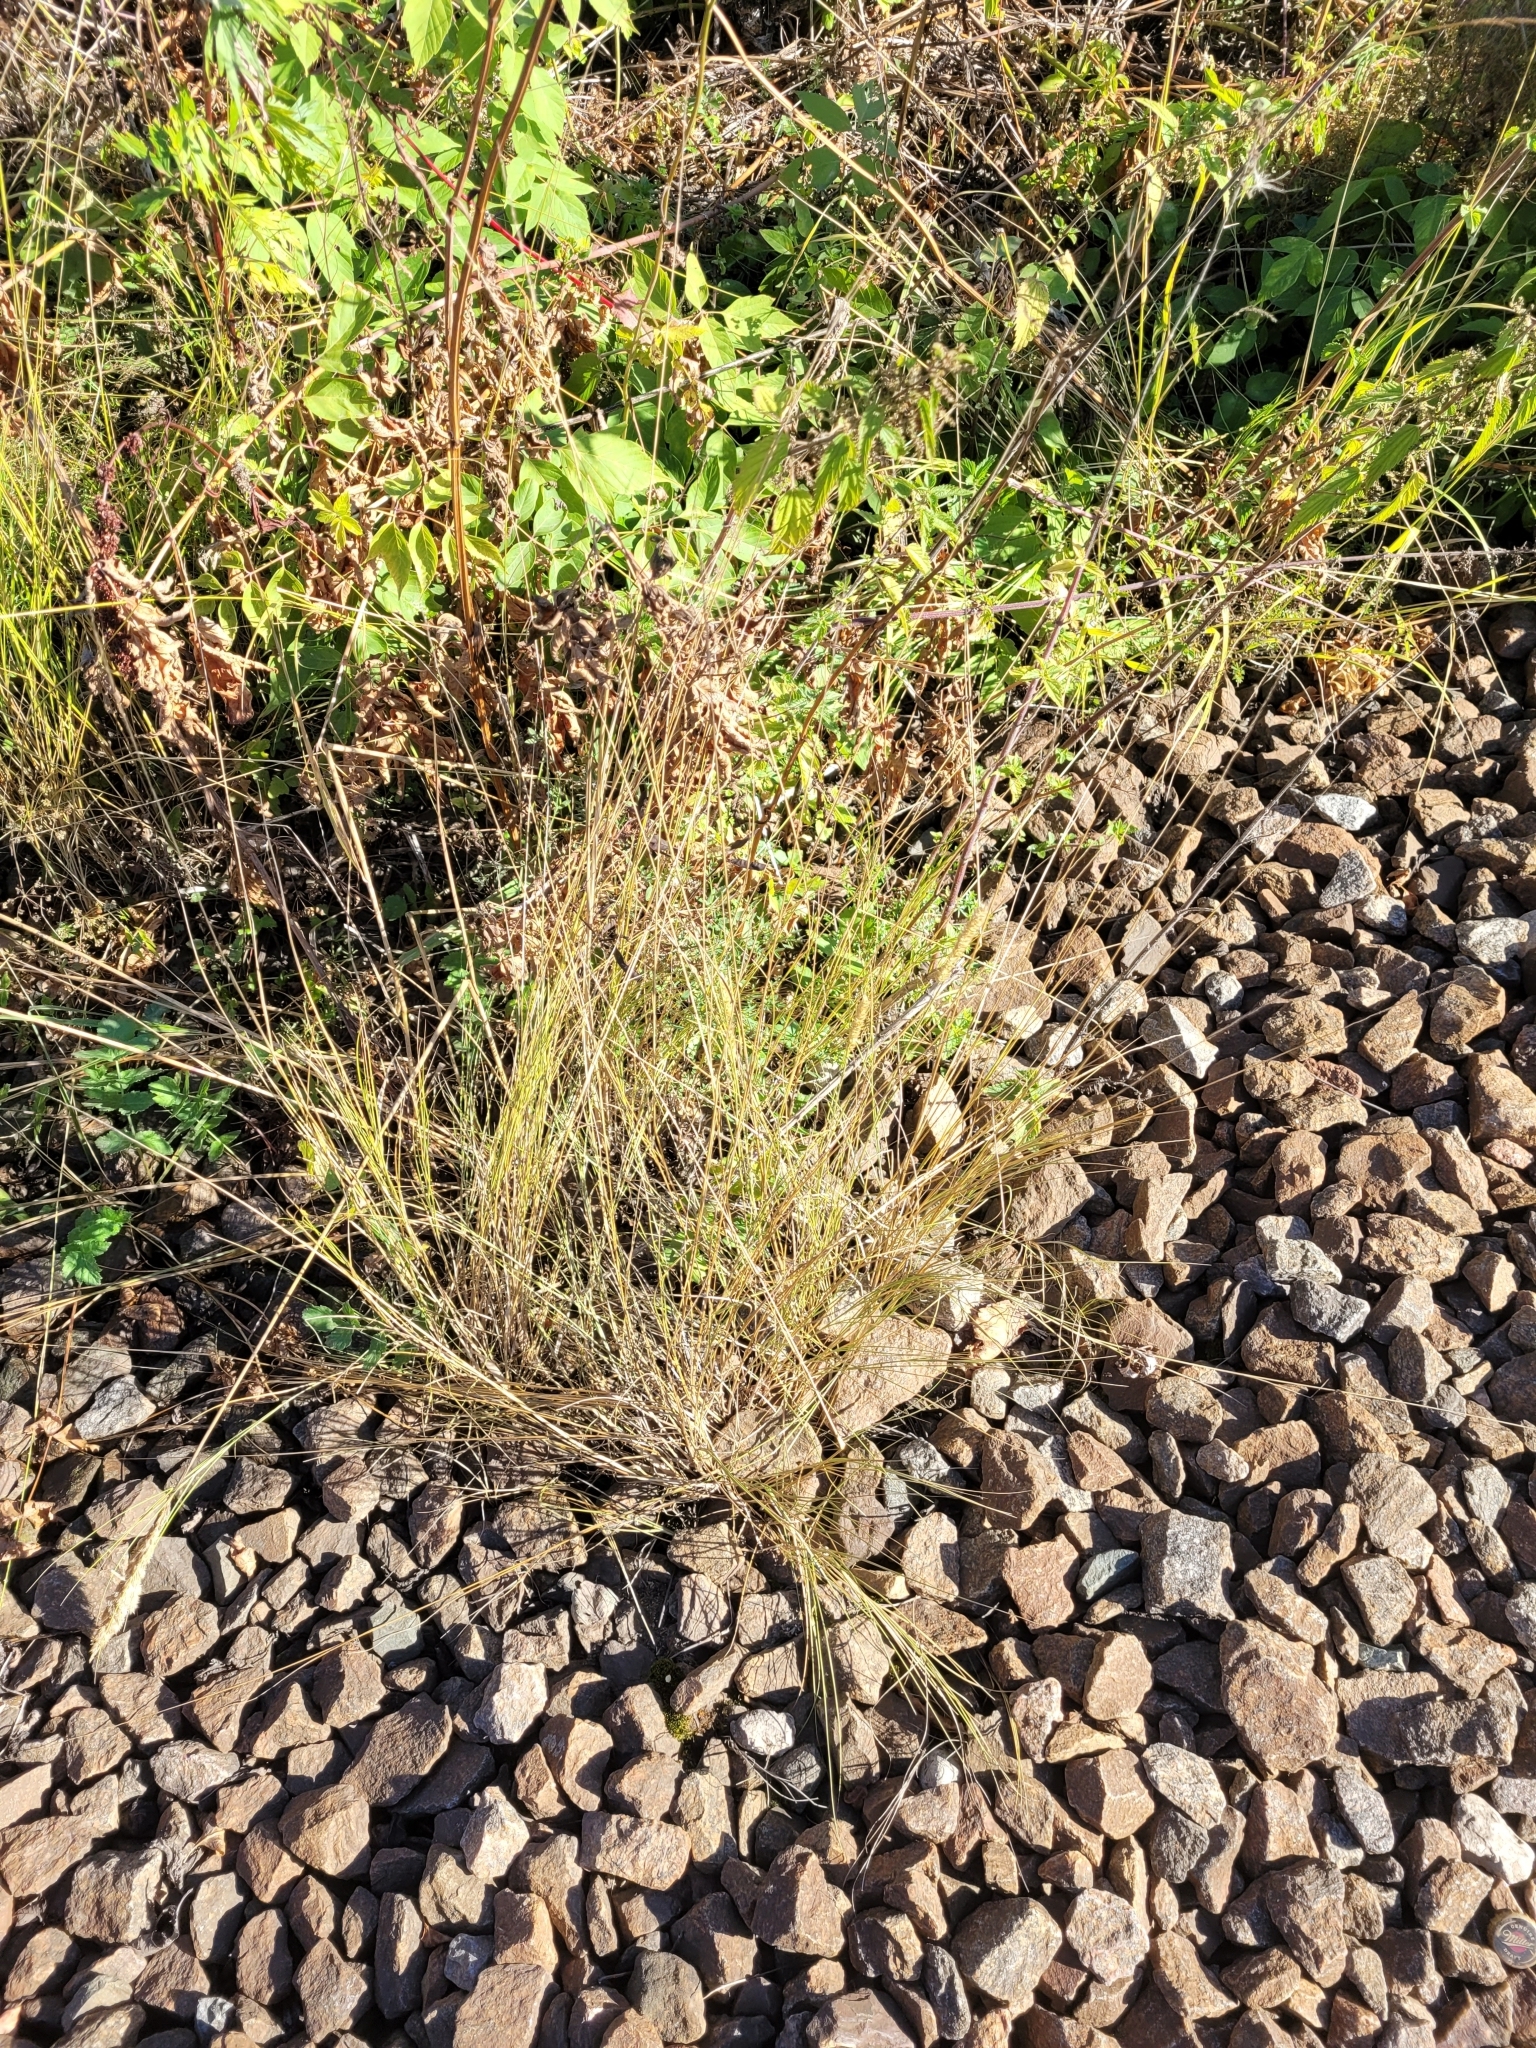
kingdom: Plantae
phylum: Tracheophyta
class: Liliopsida
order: Poales
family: Poaceae
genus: Melica
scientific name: Melica transsilvanica
